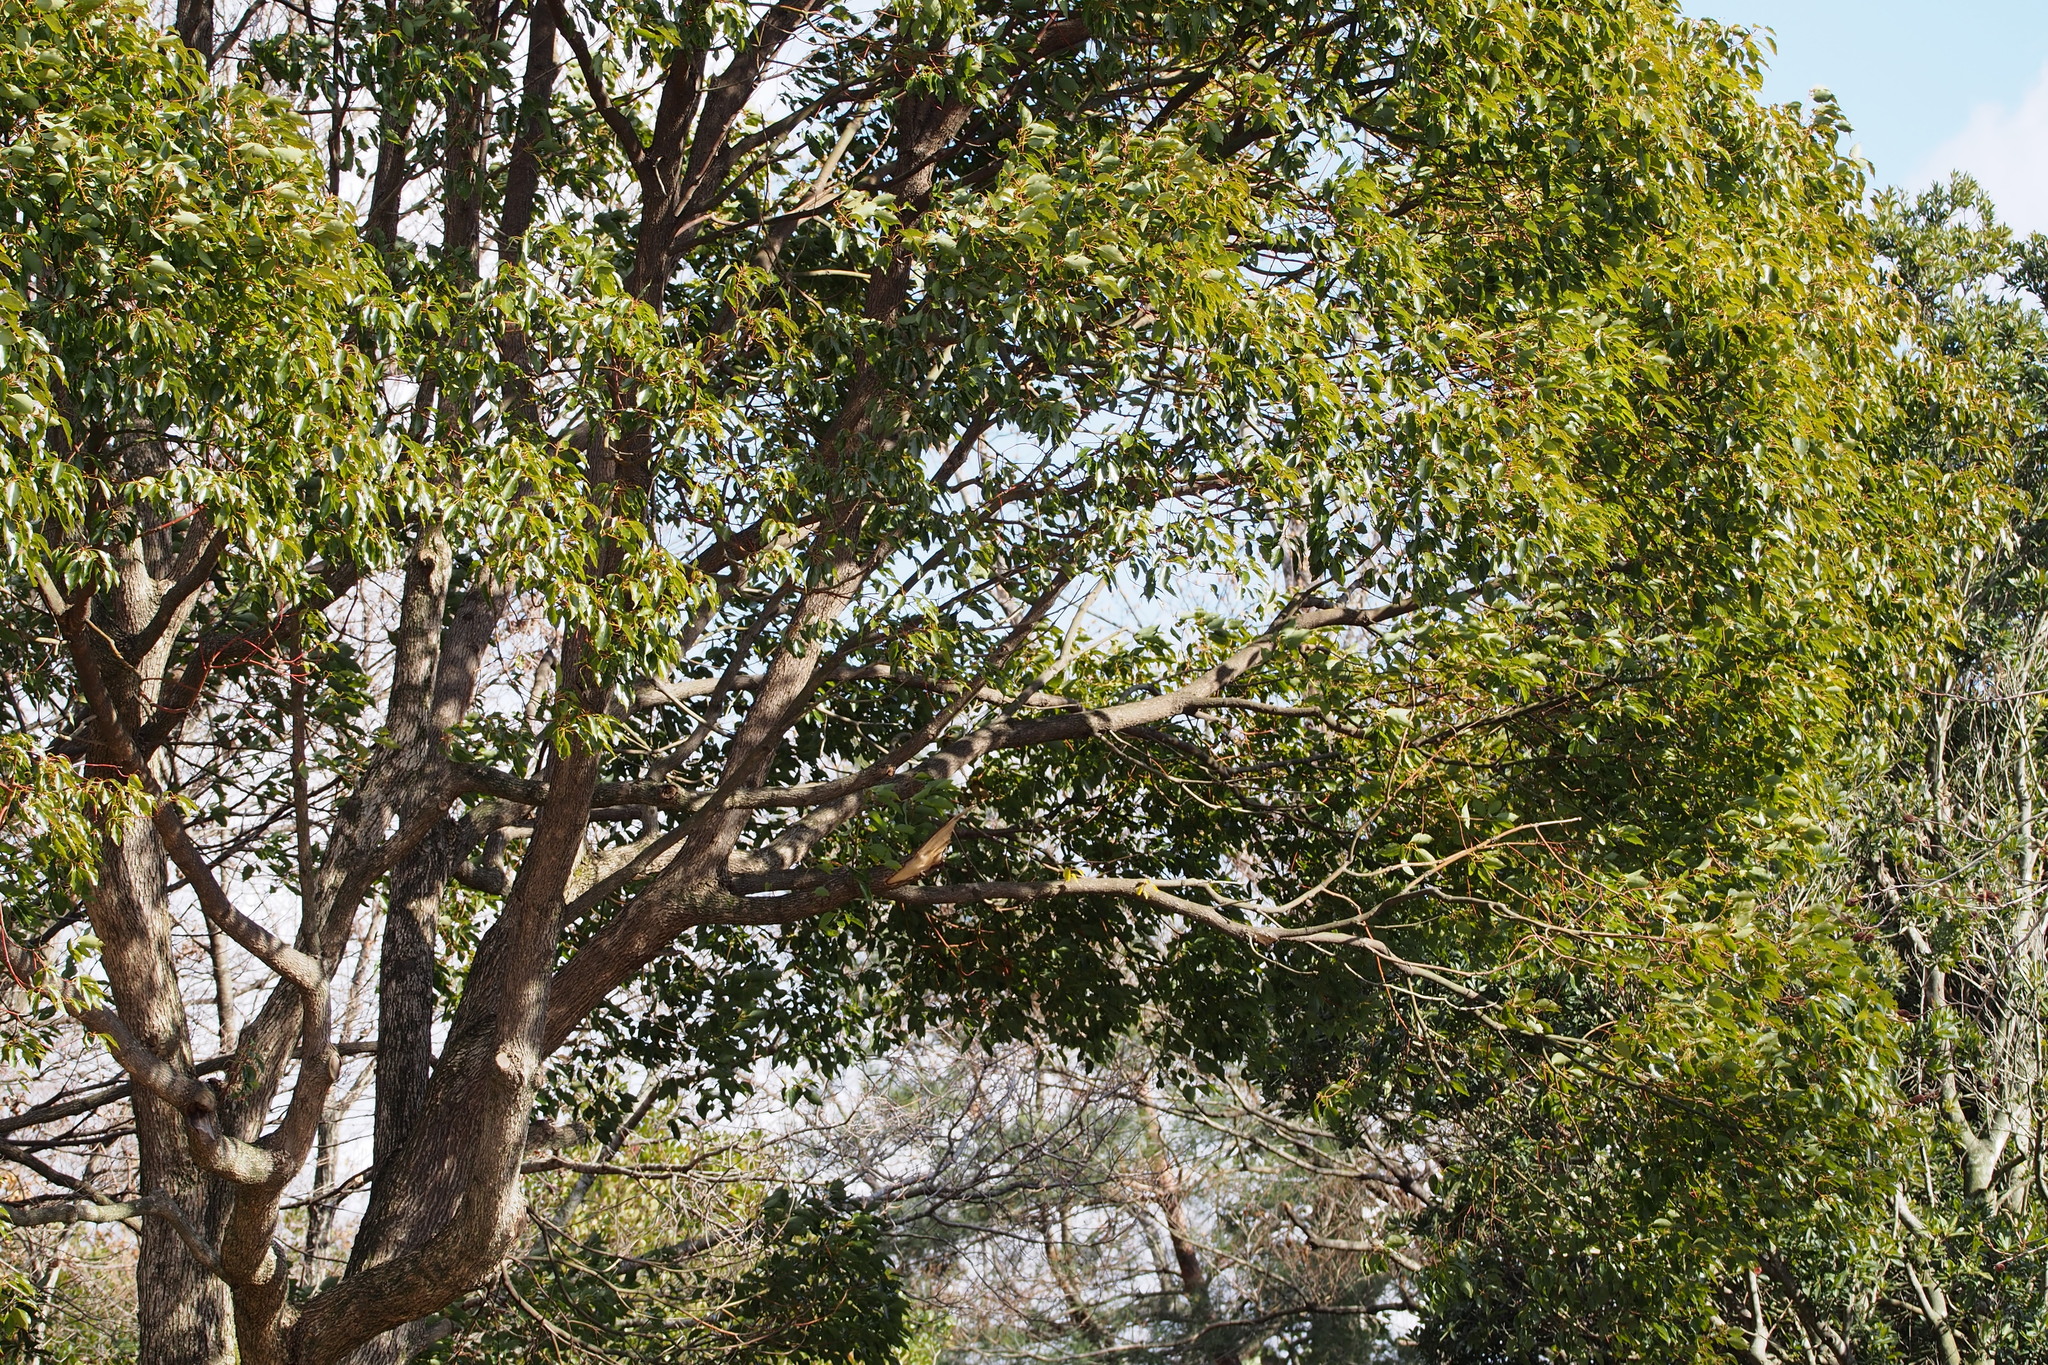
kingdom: Plantae
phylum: Tracheophyta
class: Magnoliopsida
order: Laurales
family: Lauraceae
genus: Cinnamomum
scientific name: Cinnamomum camphora
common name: Camphortree
